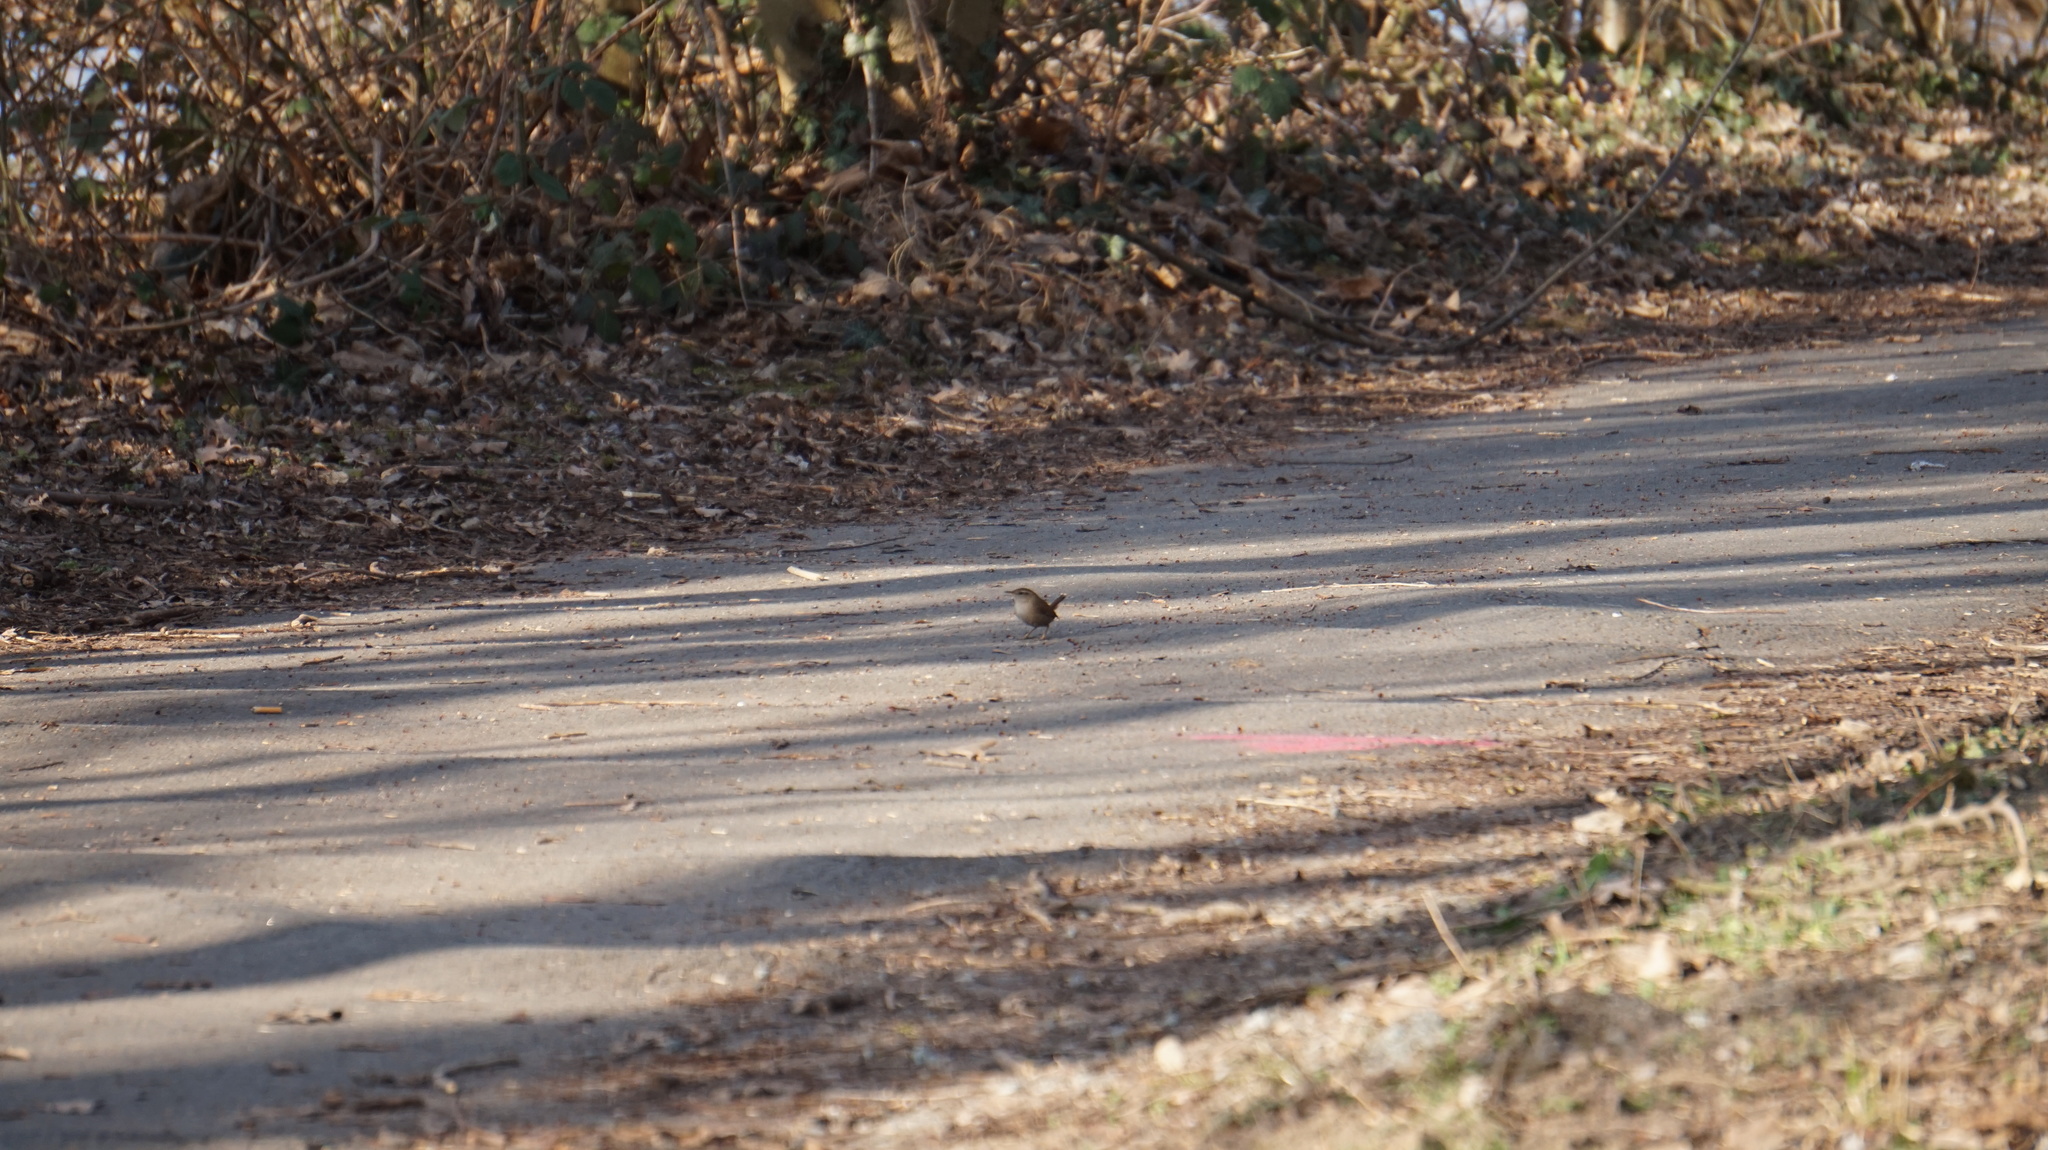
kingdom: Animalia
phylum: Chordata
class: Aves
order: Passeriformes
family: Troglodytidae
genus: Troglodytes
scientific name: Troglodytes troglodytes
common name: Eurasian wren
